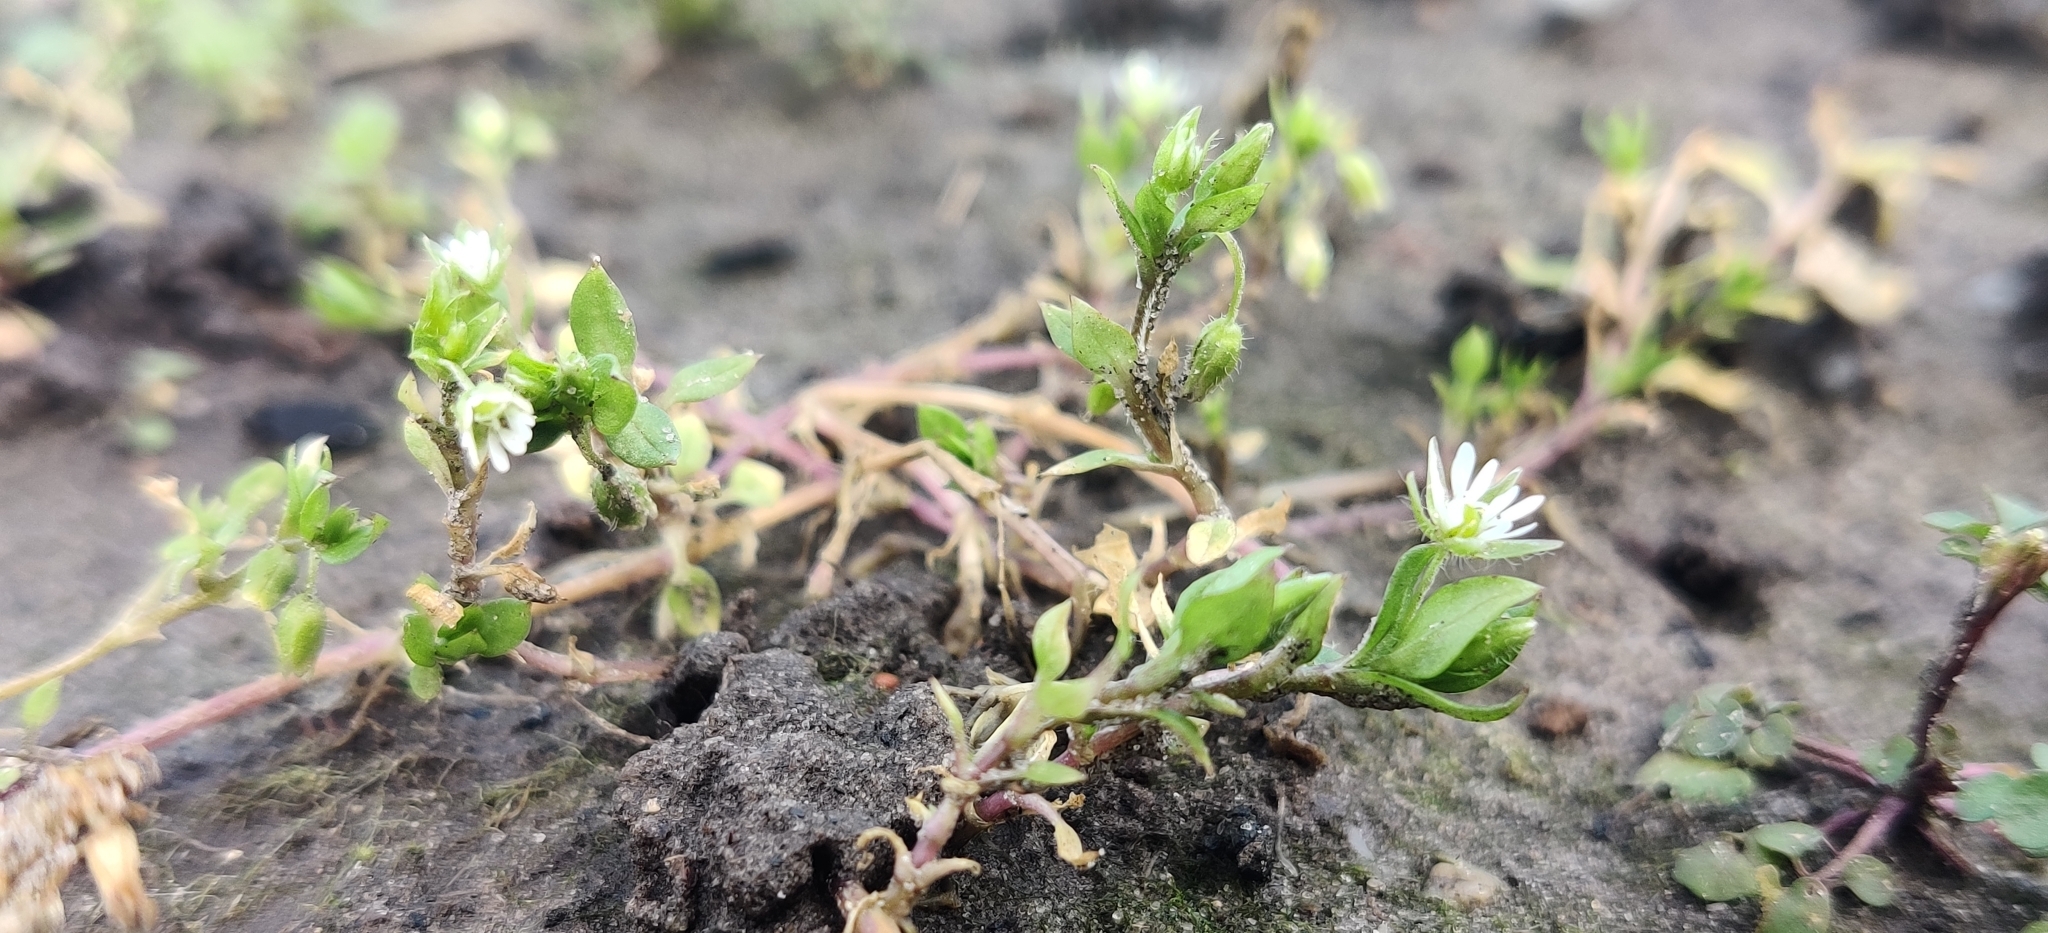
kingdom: Plantae
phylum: Tracheophyta
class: Magnoliopsida
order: Caryophyllales
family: Caryophyllaceae
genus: Stellaria
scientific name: Stellaria media
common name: Common chickweed
